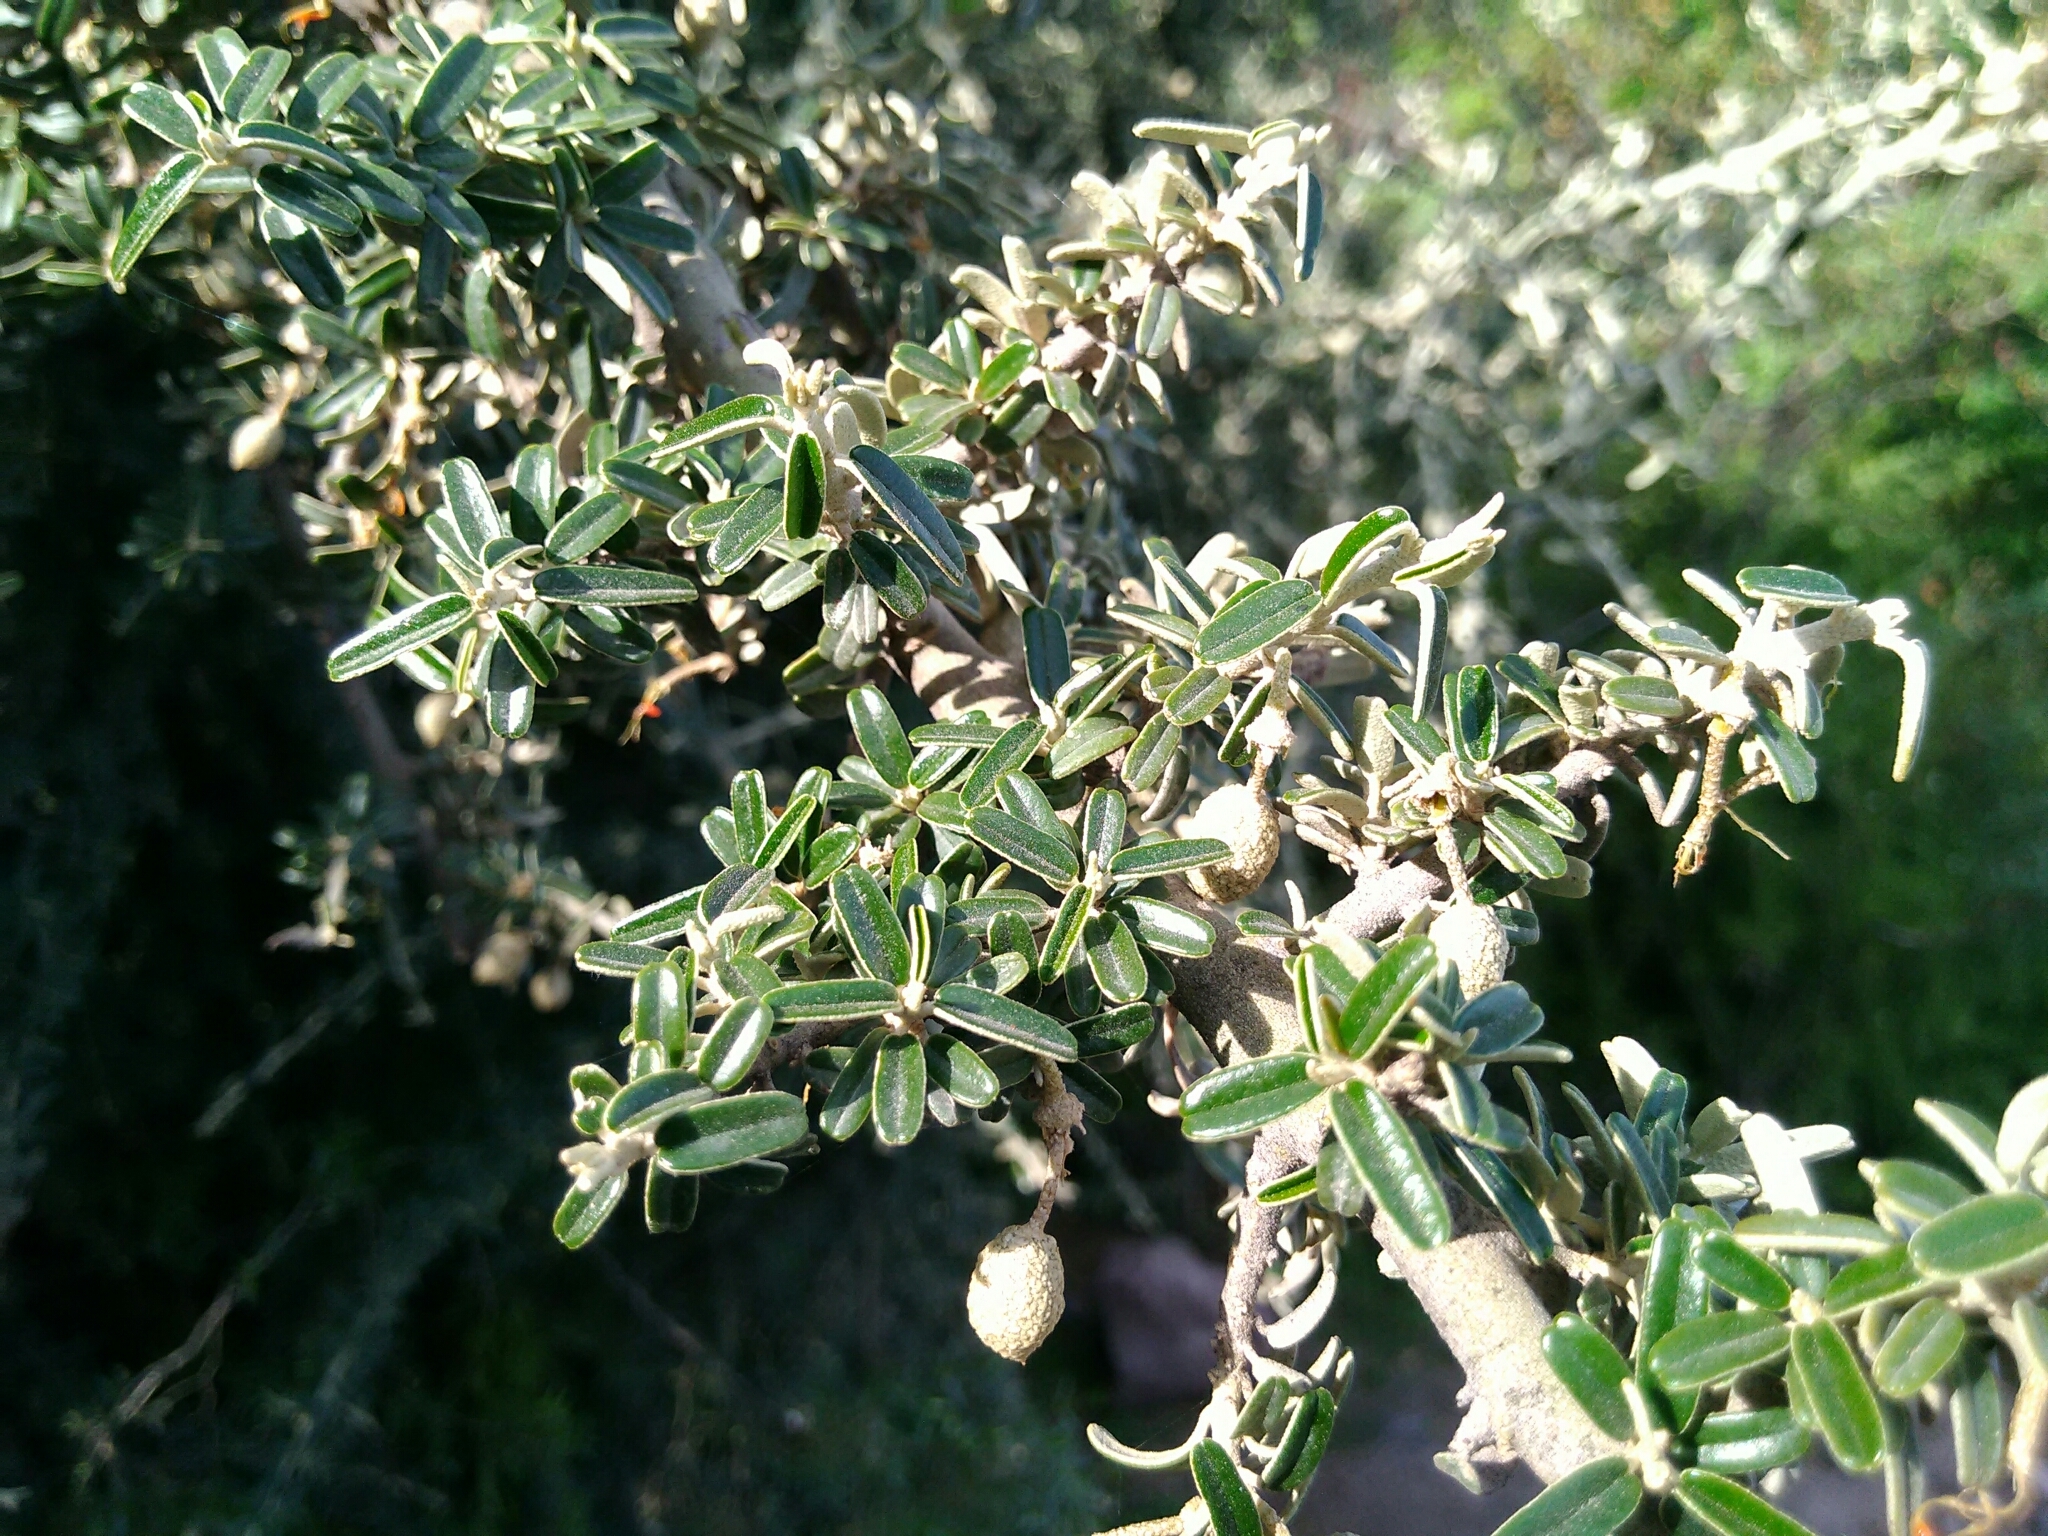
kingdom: Plantae
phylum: Tracheophyta
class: Magnoliopsida
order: Brassicales
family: Capparaceae
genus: Atamisquea
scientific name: Atamisquea emarginata
